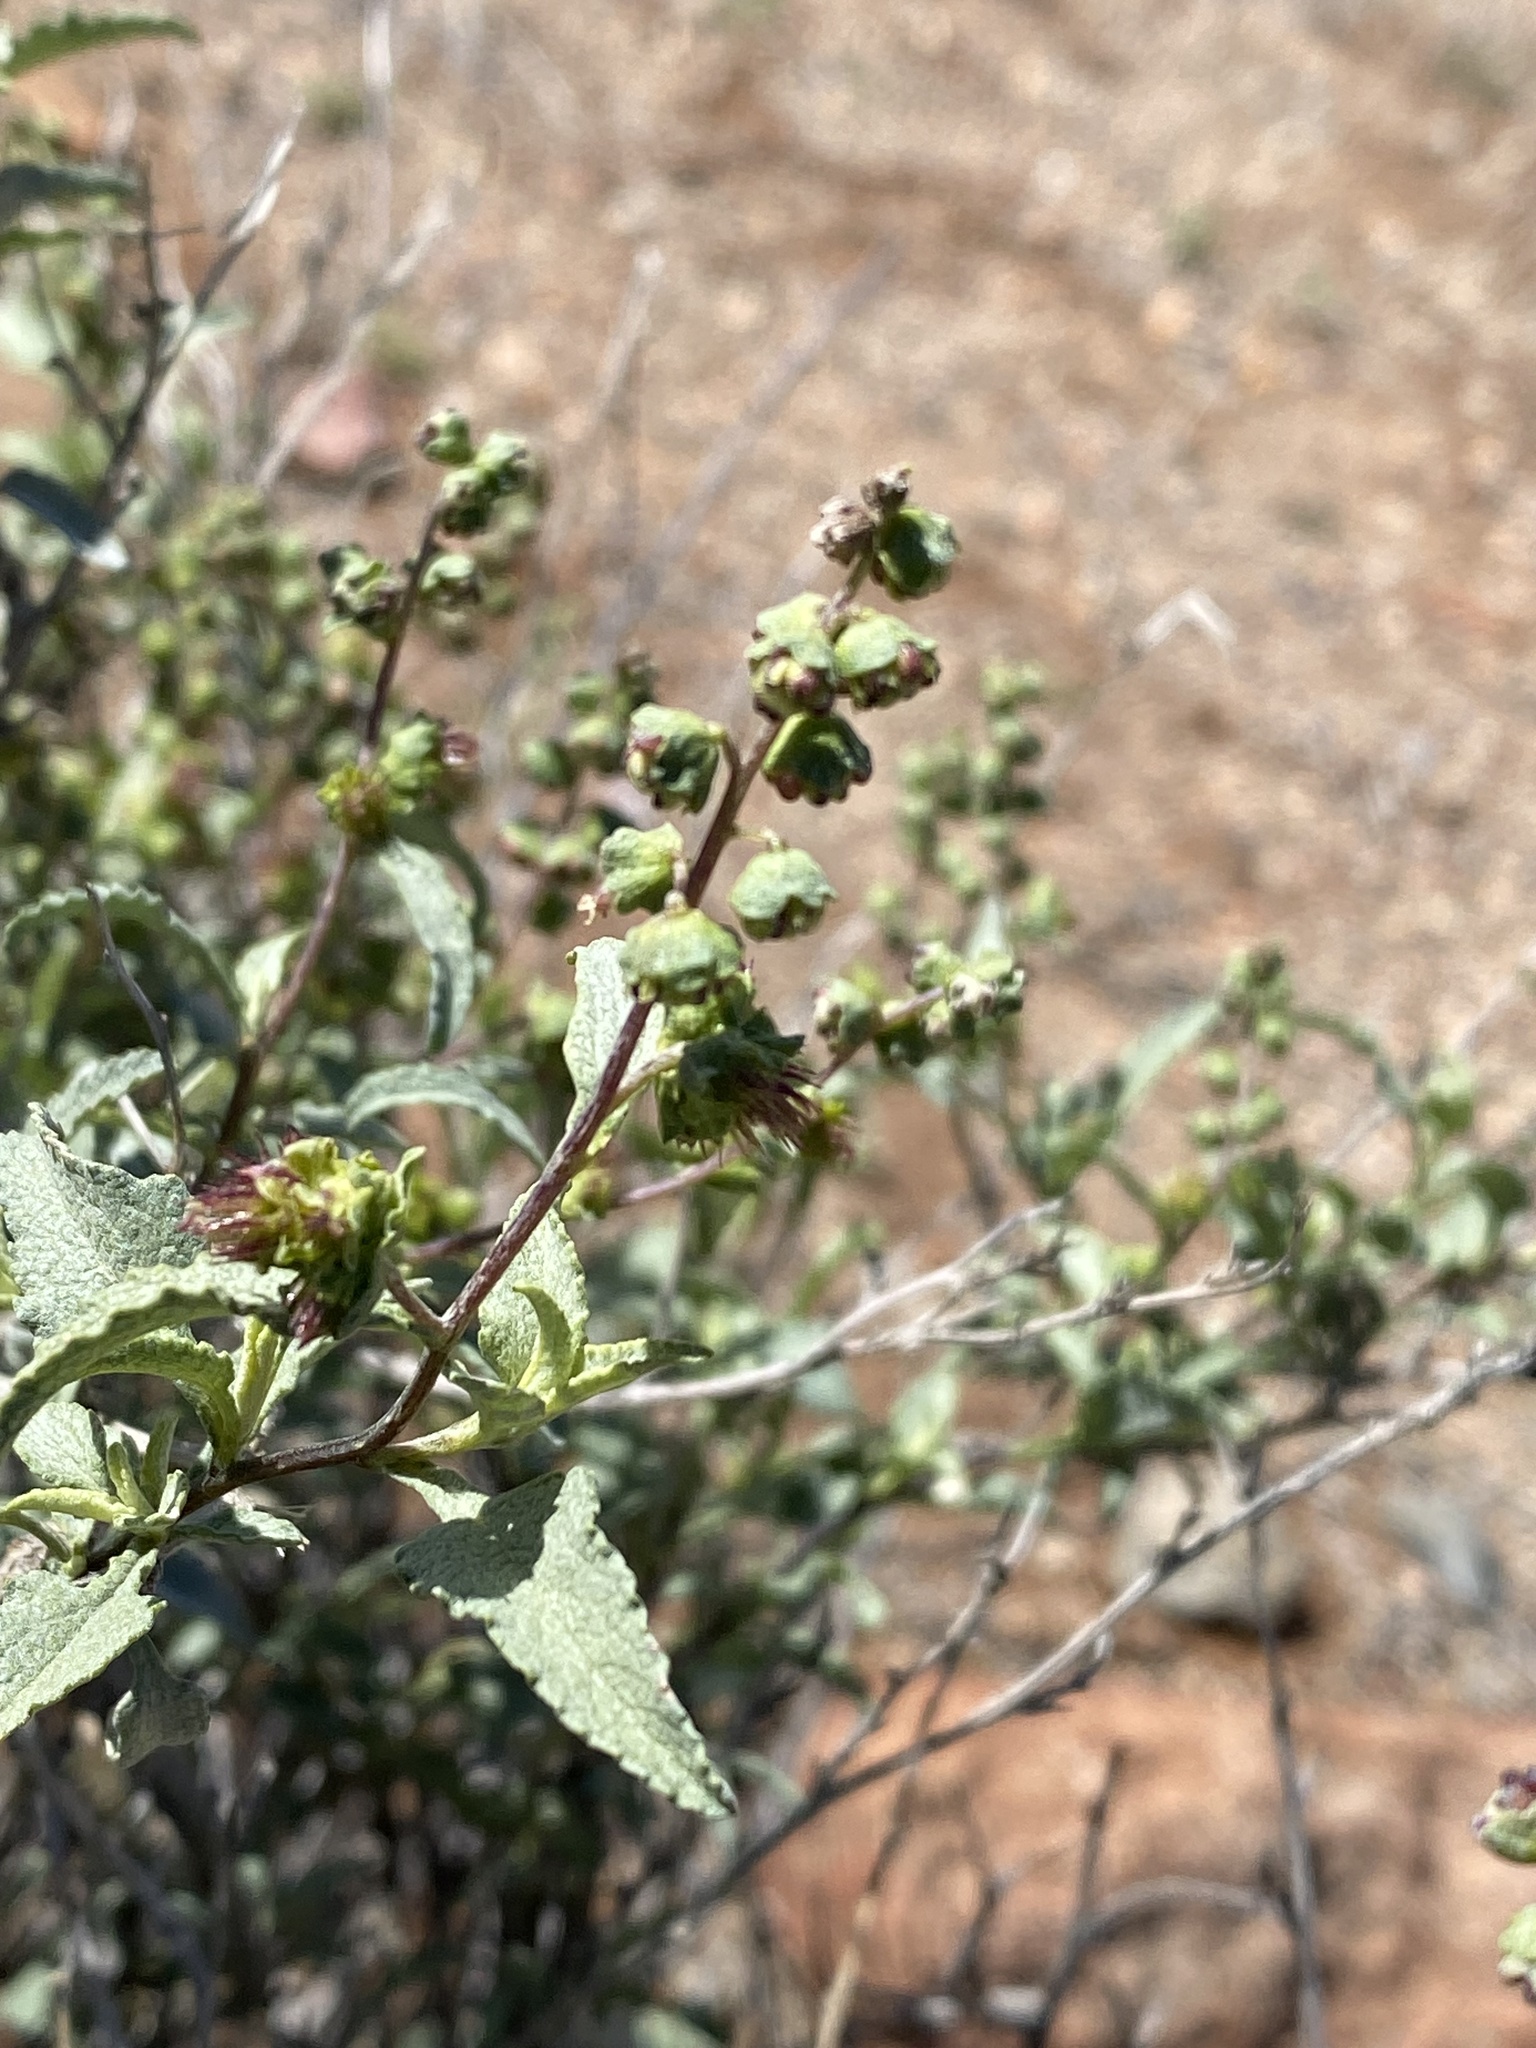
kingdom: Plantae
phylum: Tracheophyta
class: Magnoliopsida
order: Asterales
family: Asteraceae
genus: Ambrosia
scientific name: Ambrosia deltoidea
